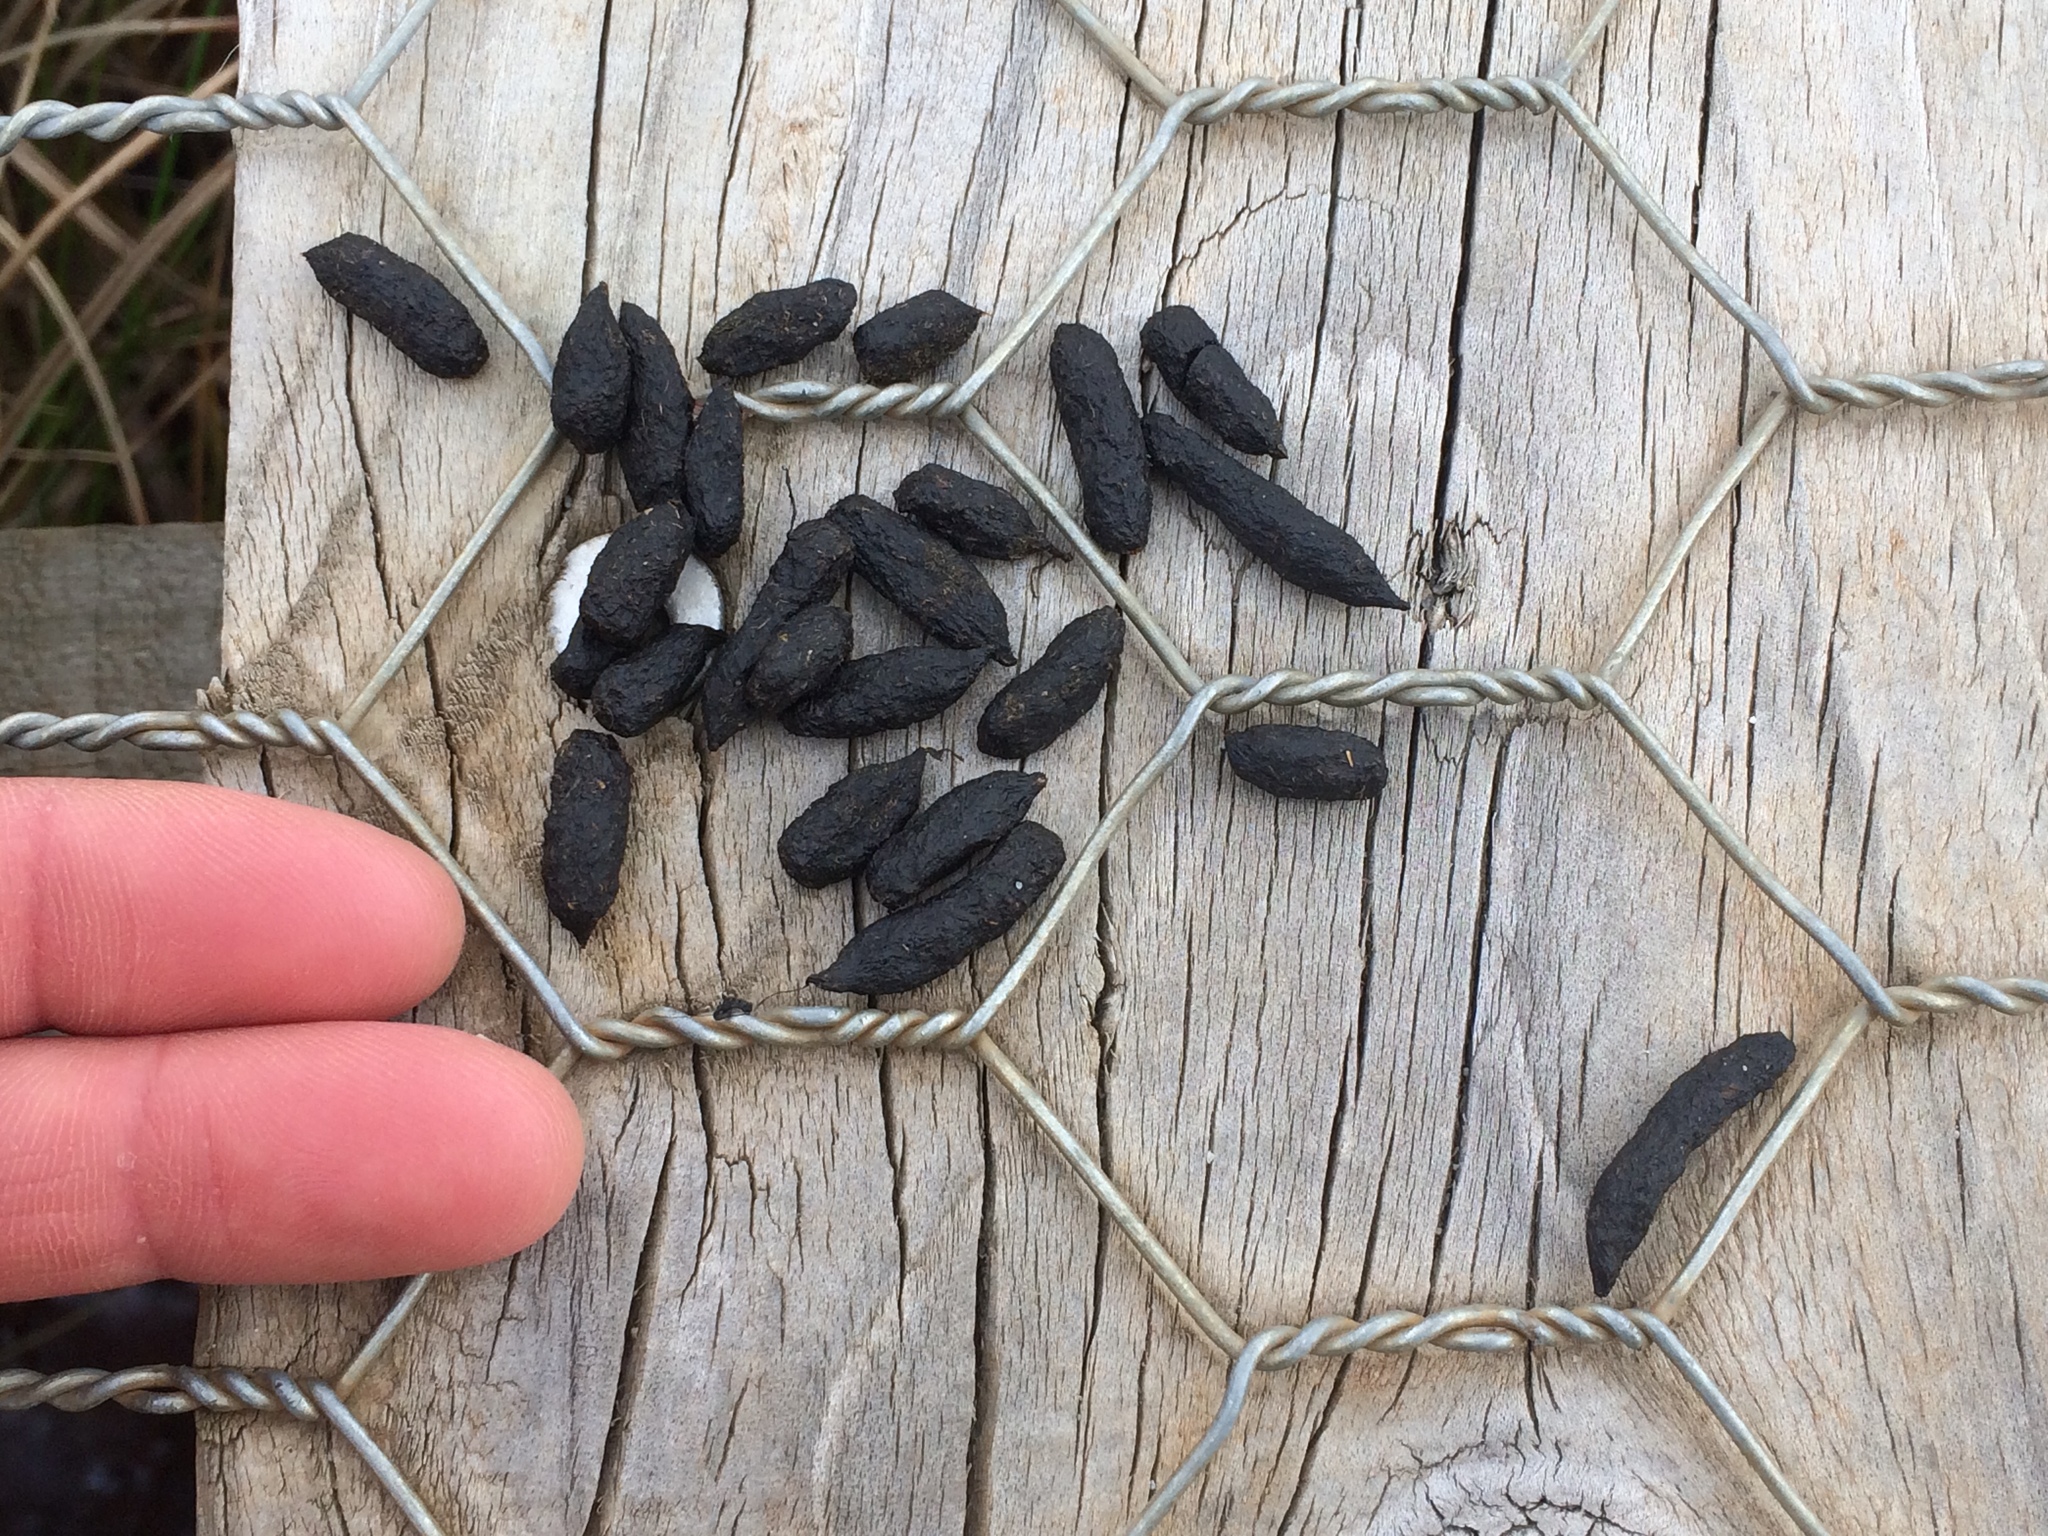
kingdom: Animalia
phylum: Chordata
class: Mammalia
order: Diprotodontia
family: Phalangeridae
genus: Trichosurus
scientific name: Trichosurus vulpecula
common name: Common brushtail
